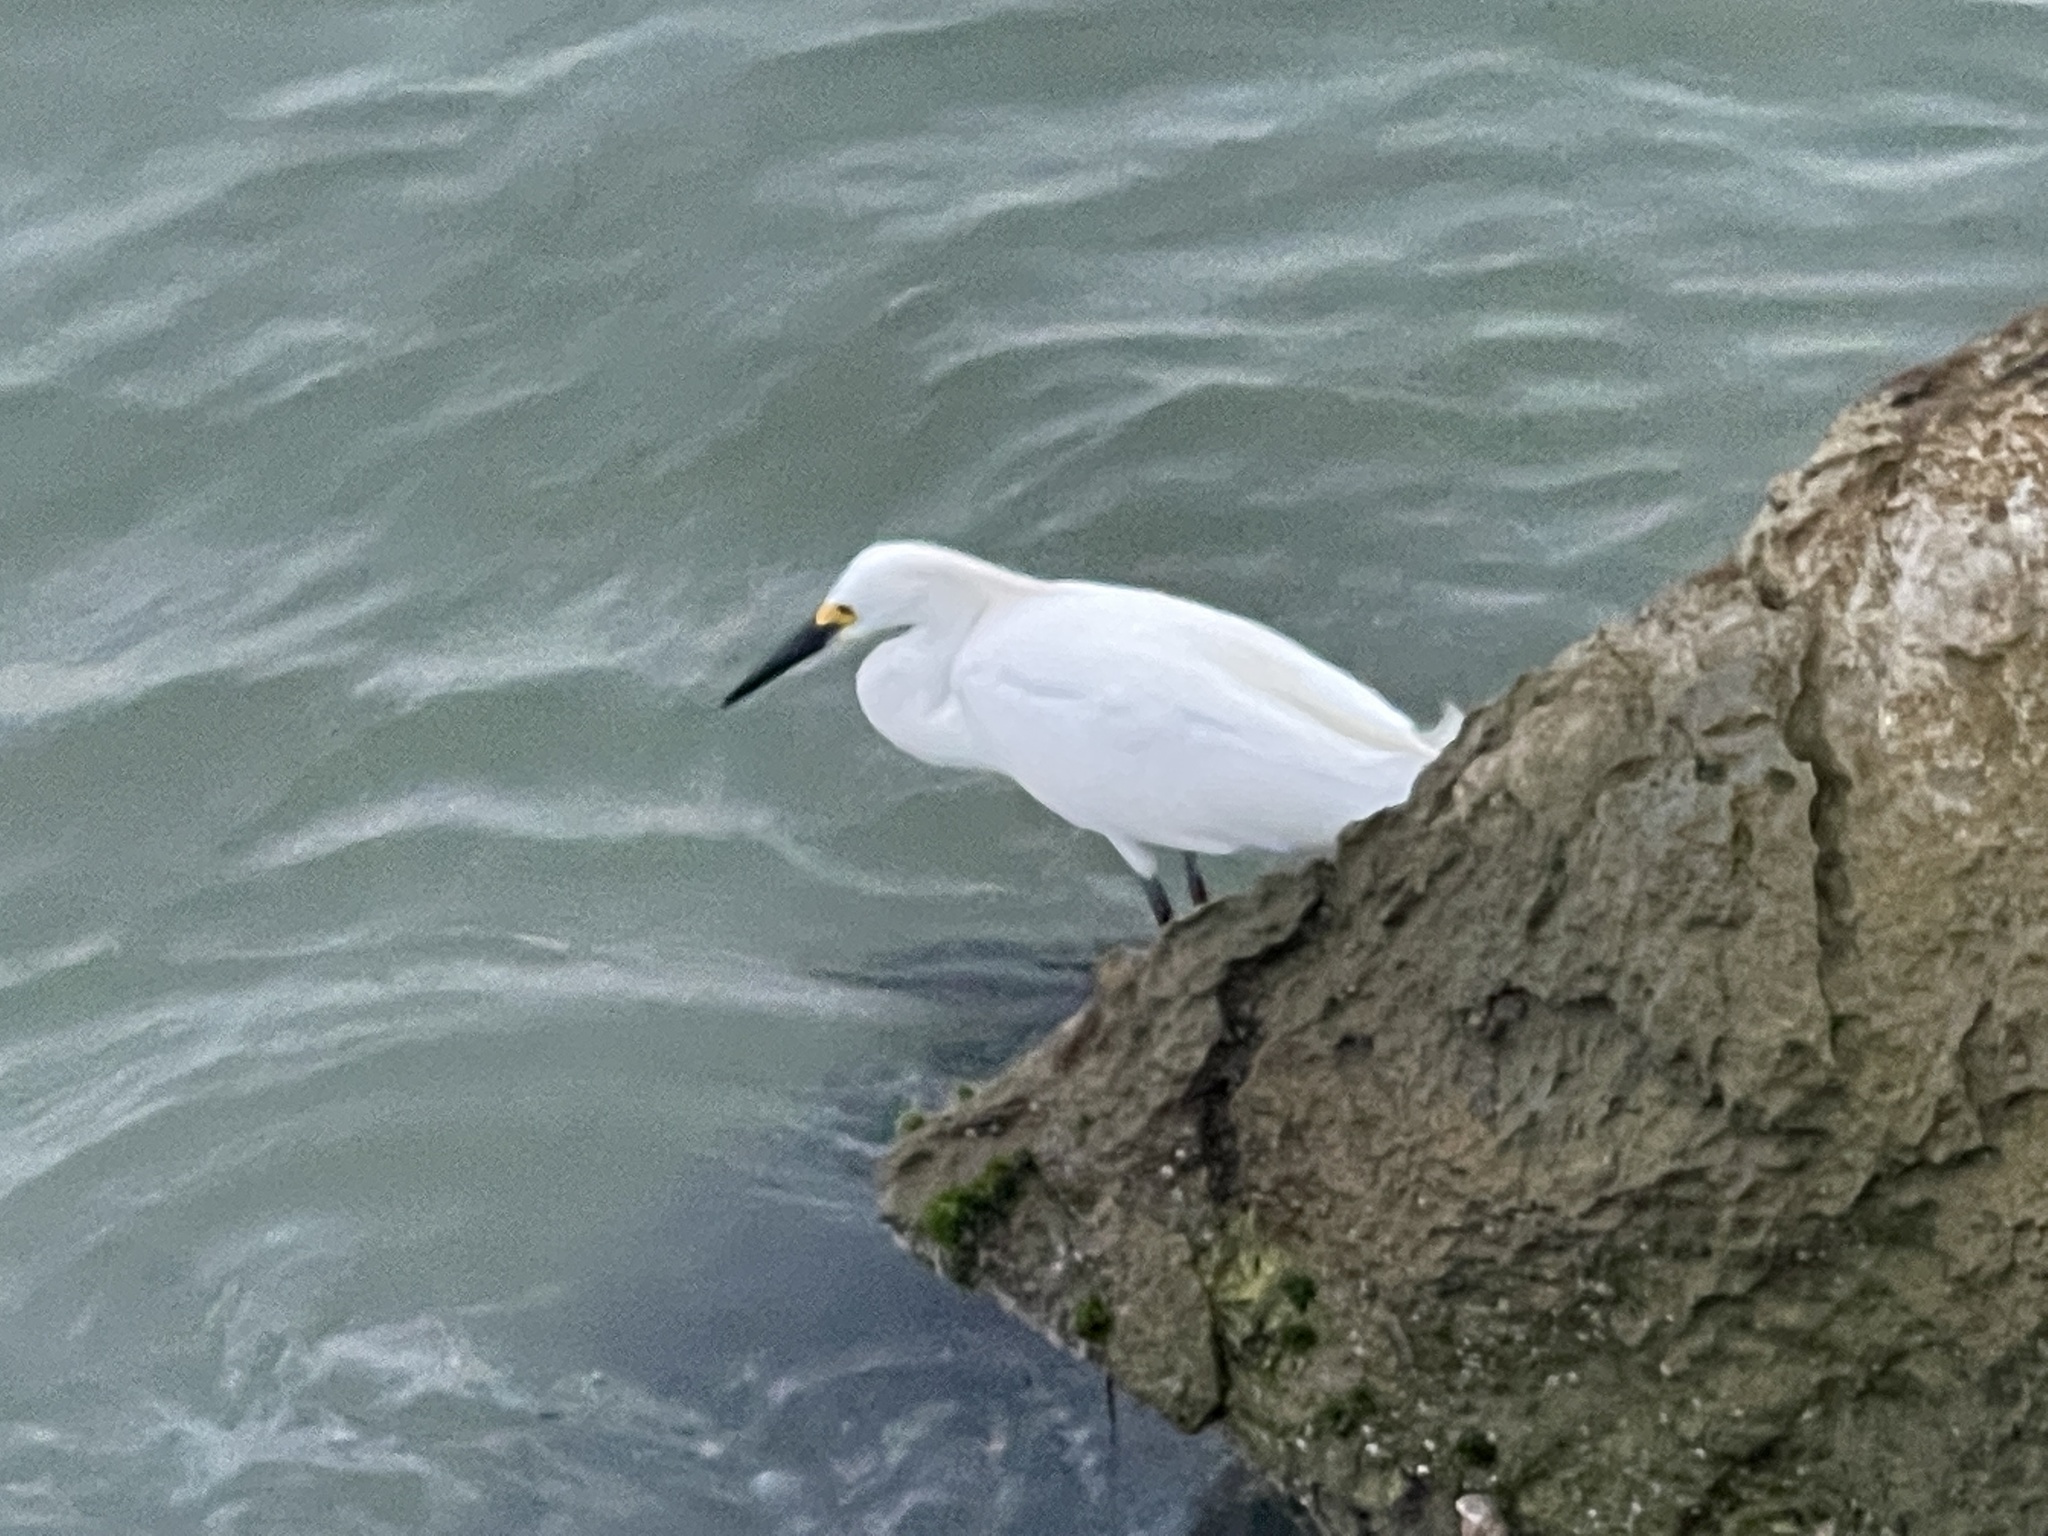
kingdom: Animalia
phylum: Chordata
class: Aves
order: Pelecaniformes
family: Ardeidae
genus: Egretta
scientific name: Egretta thula
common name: Snowy egret
